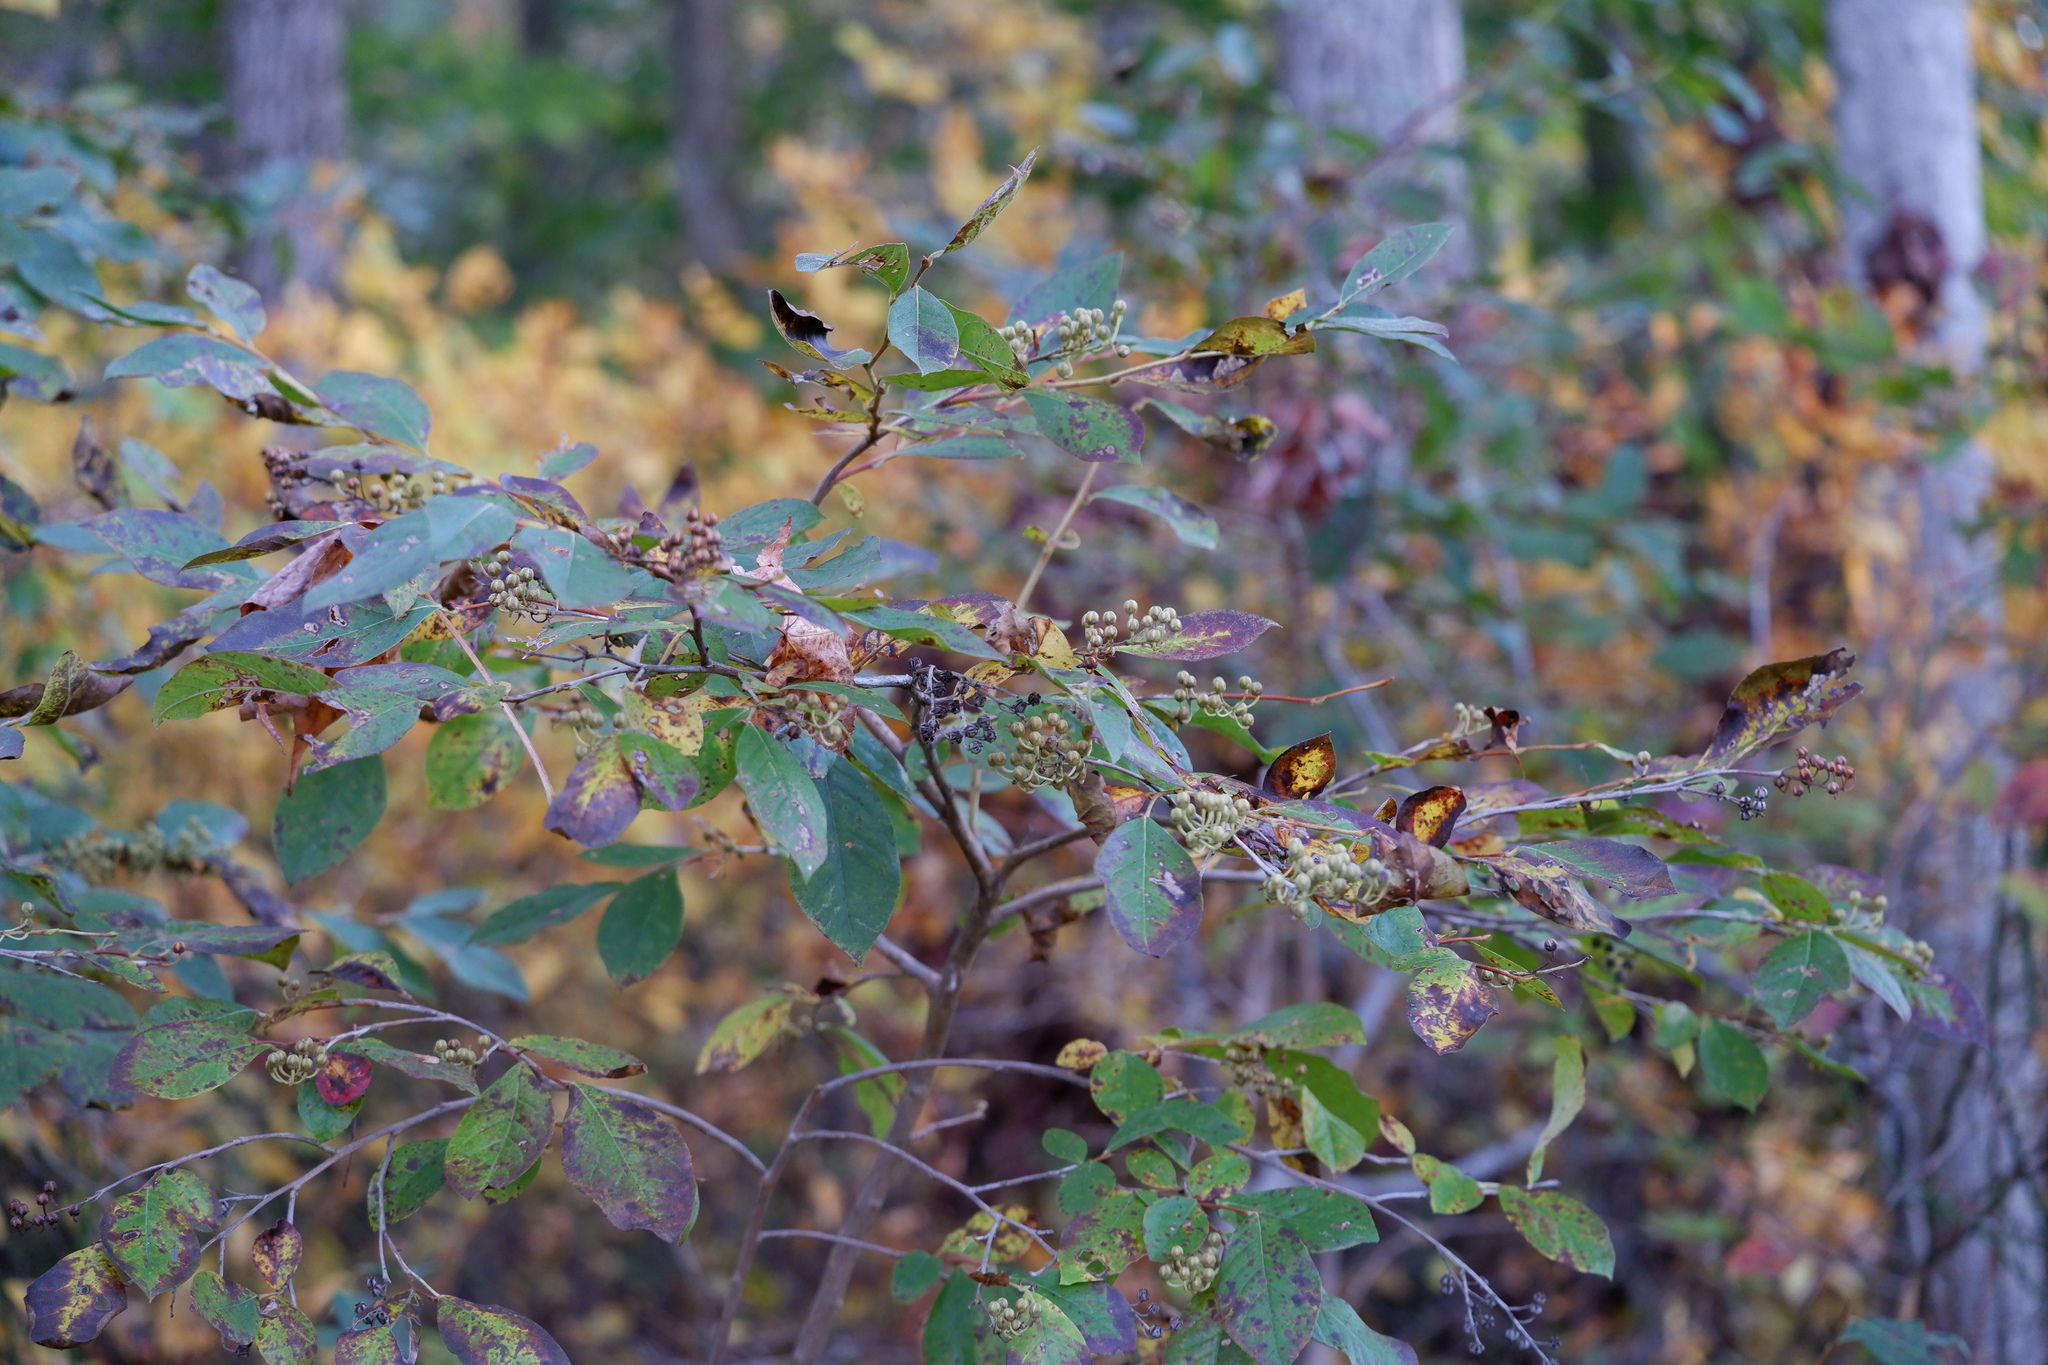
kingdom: Plantae
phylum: Tracheophyta
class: Magnoliopsida
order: Ericales
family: Ericaceae
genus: Lyonia
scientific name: Lyonia ligustrina
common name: Maleberry
